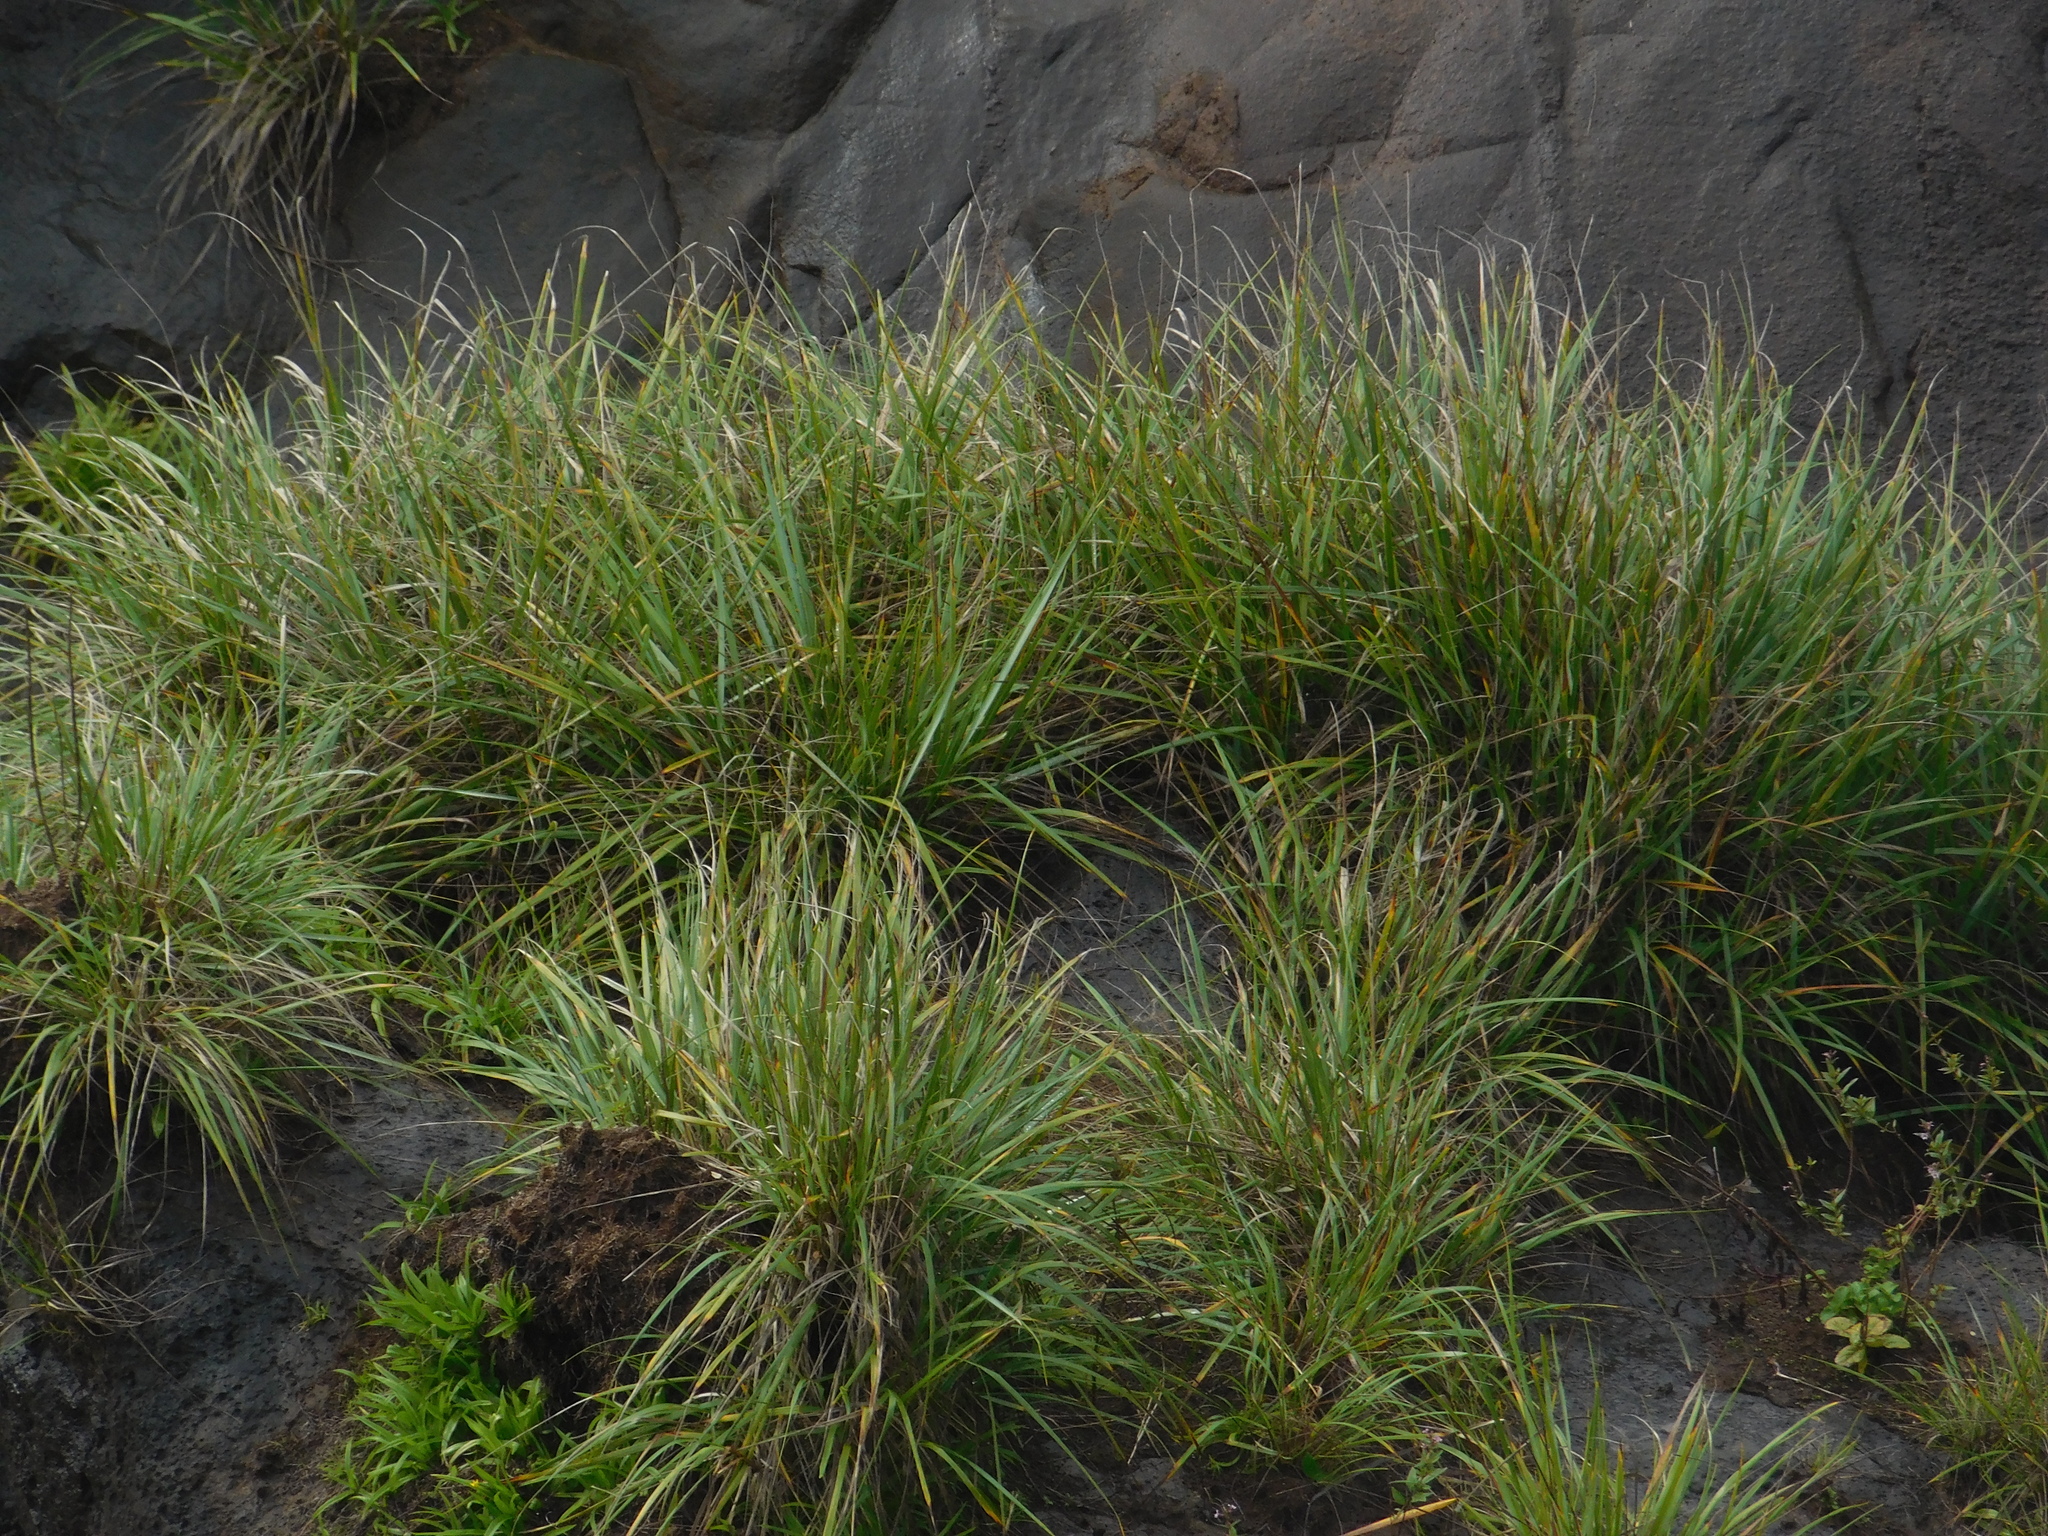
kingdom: Plantae
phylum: Tracheophyta
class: Liliopsida
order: Poales
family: Poaceae
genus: Paspalum
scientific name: Paspalum lilloi
